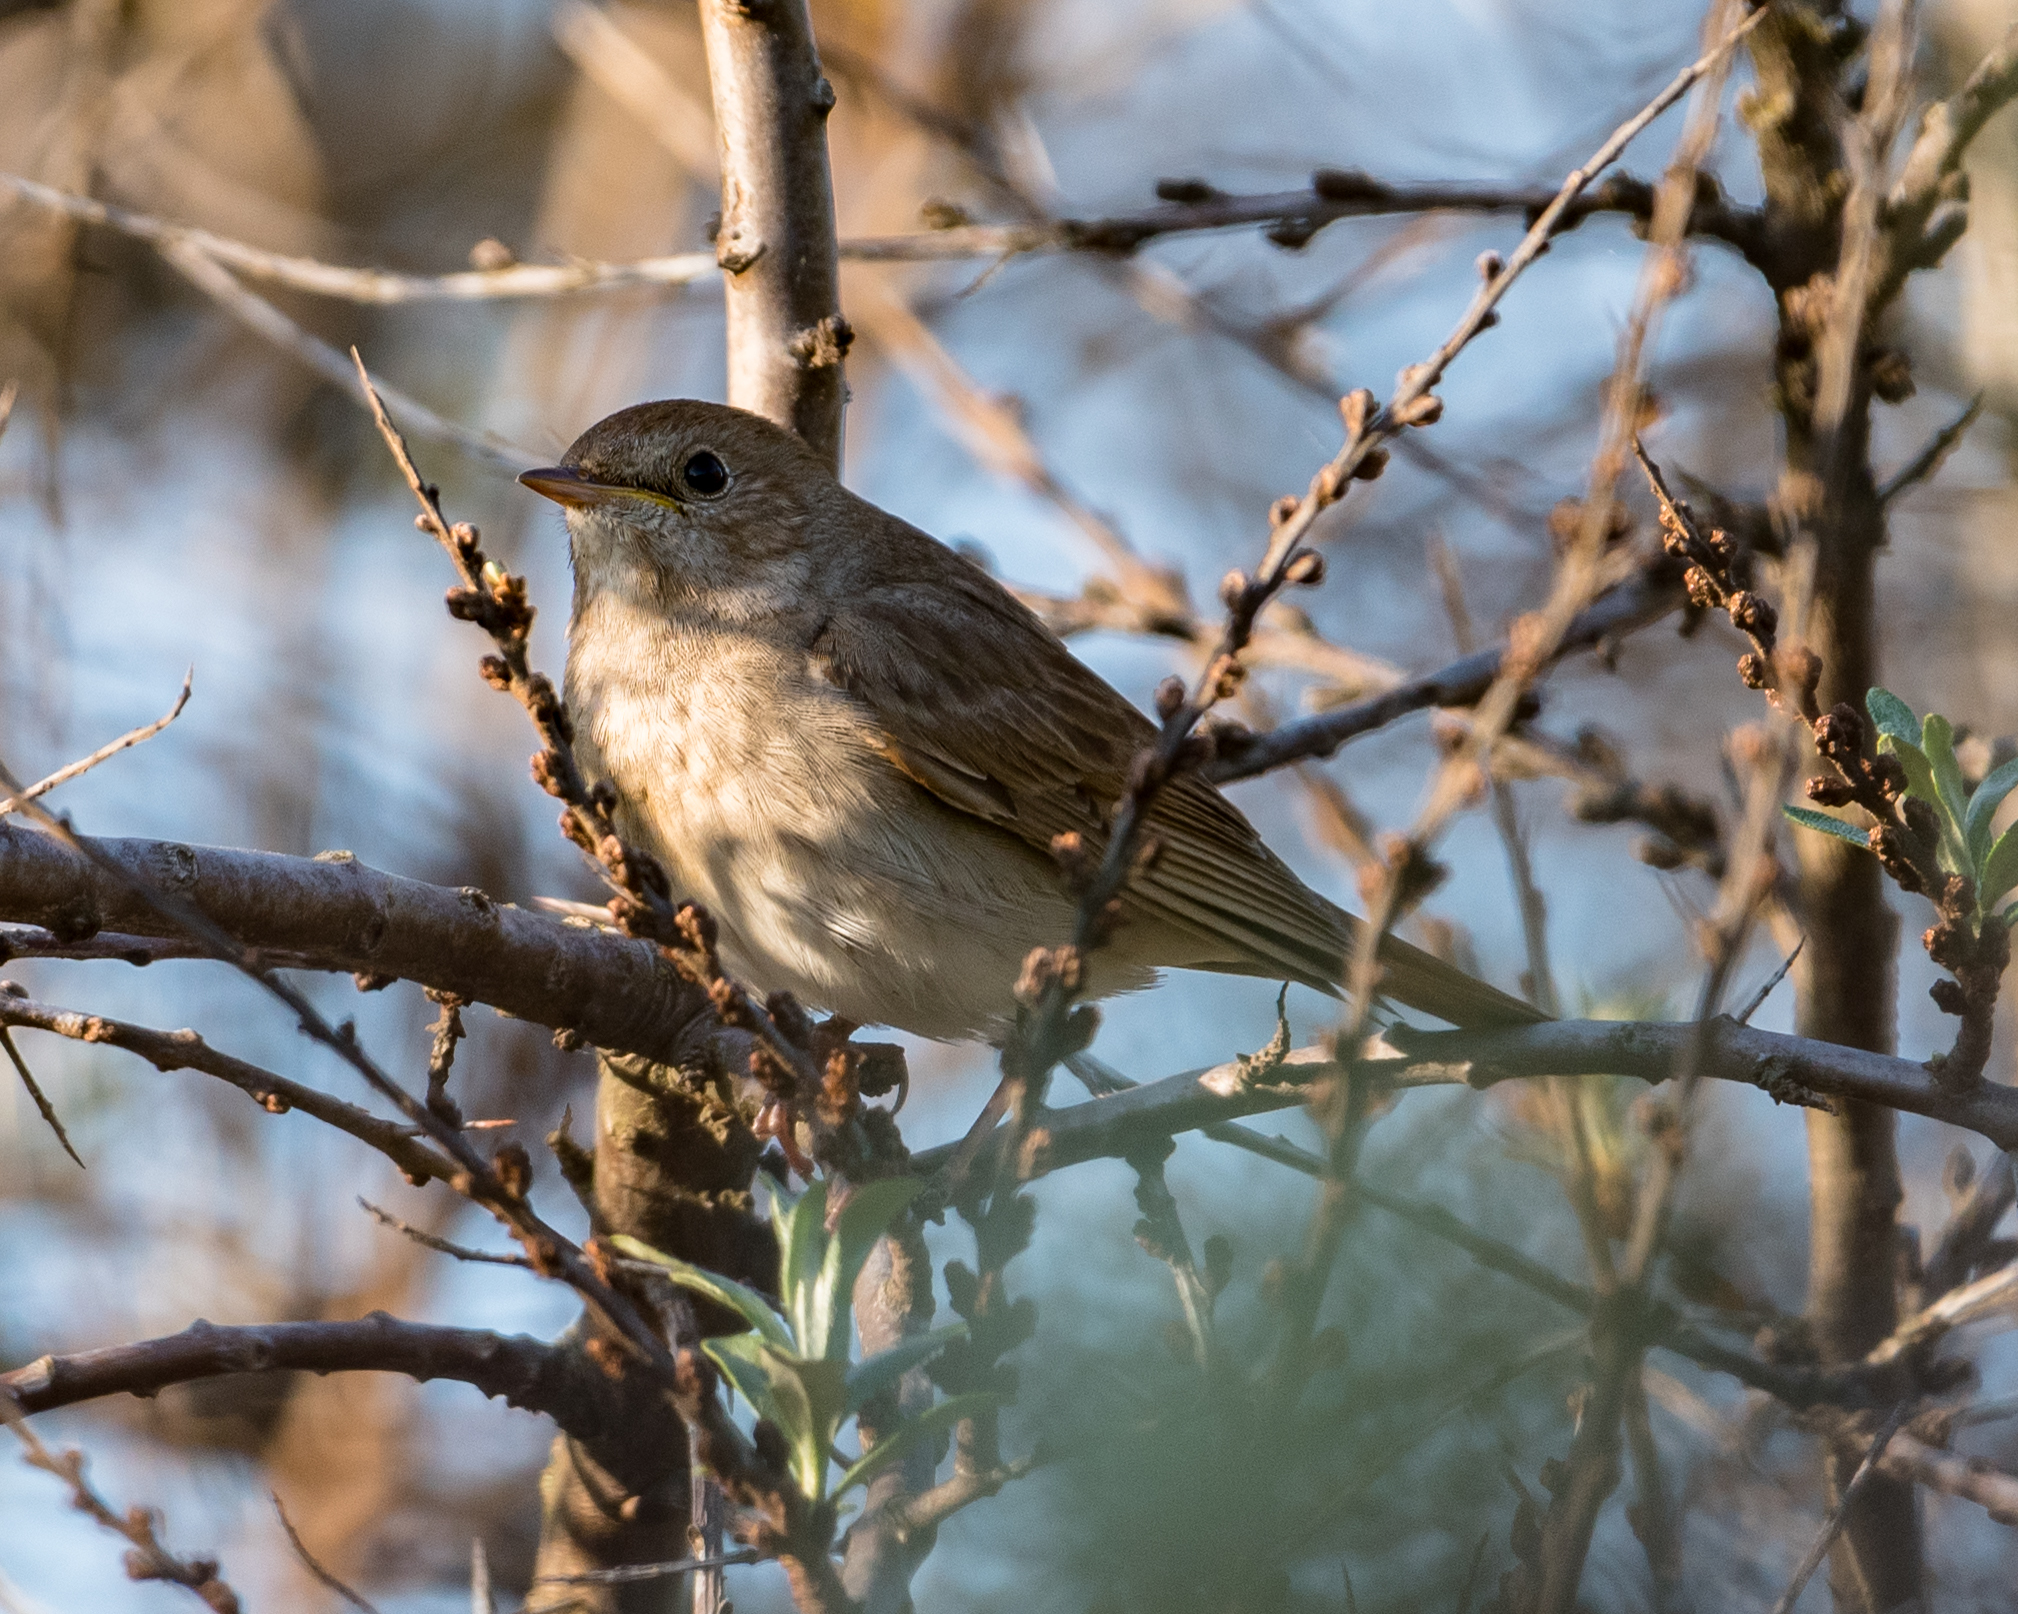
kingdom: Animalia
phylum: Chordata
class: Aves
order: Passeriformes
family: Muscicapidae
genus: Luscinia
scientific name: Luscinia luscinia
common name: Thrush nightingale
